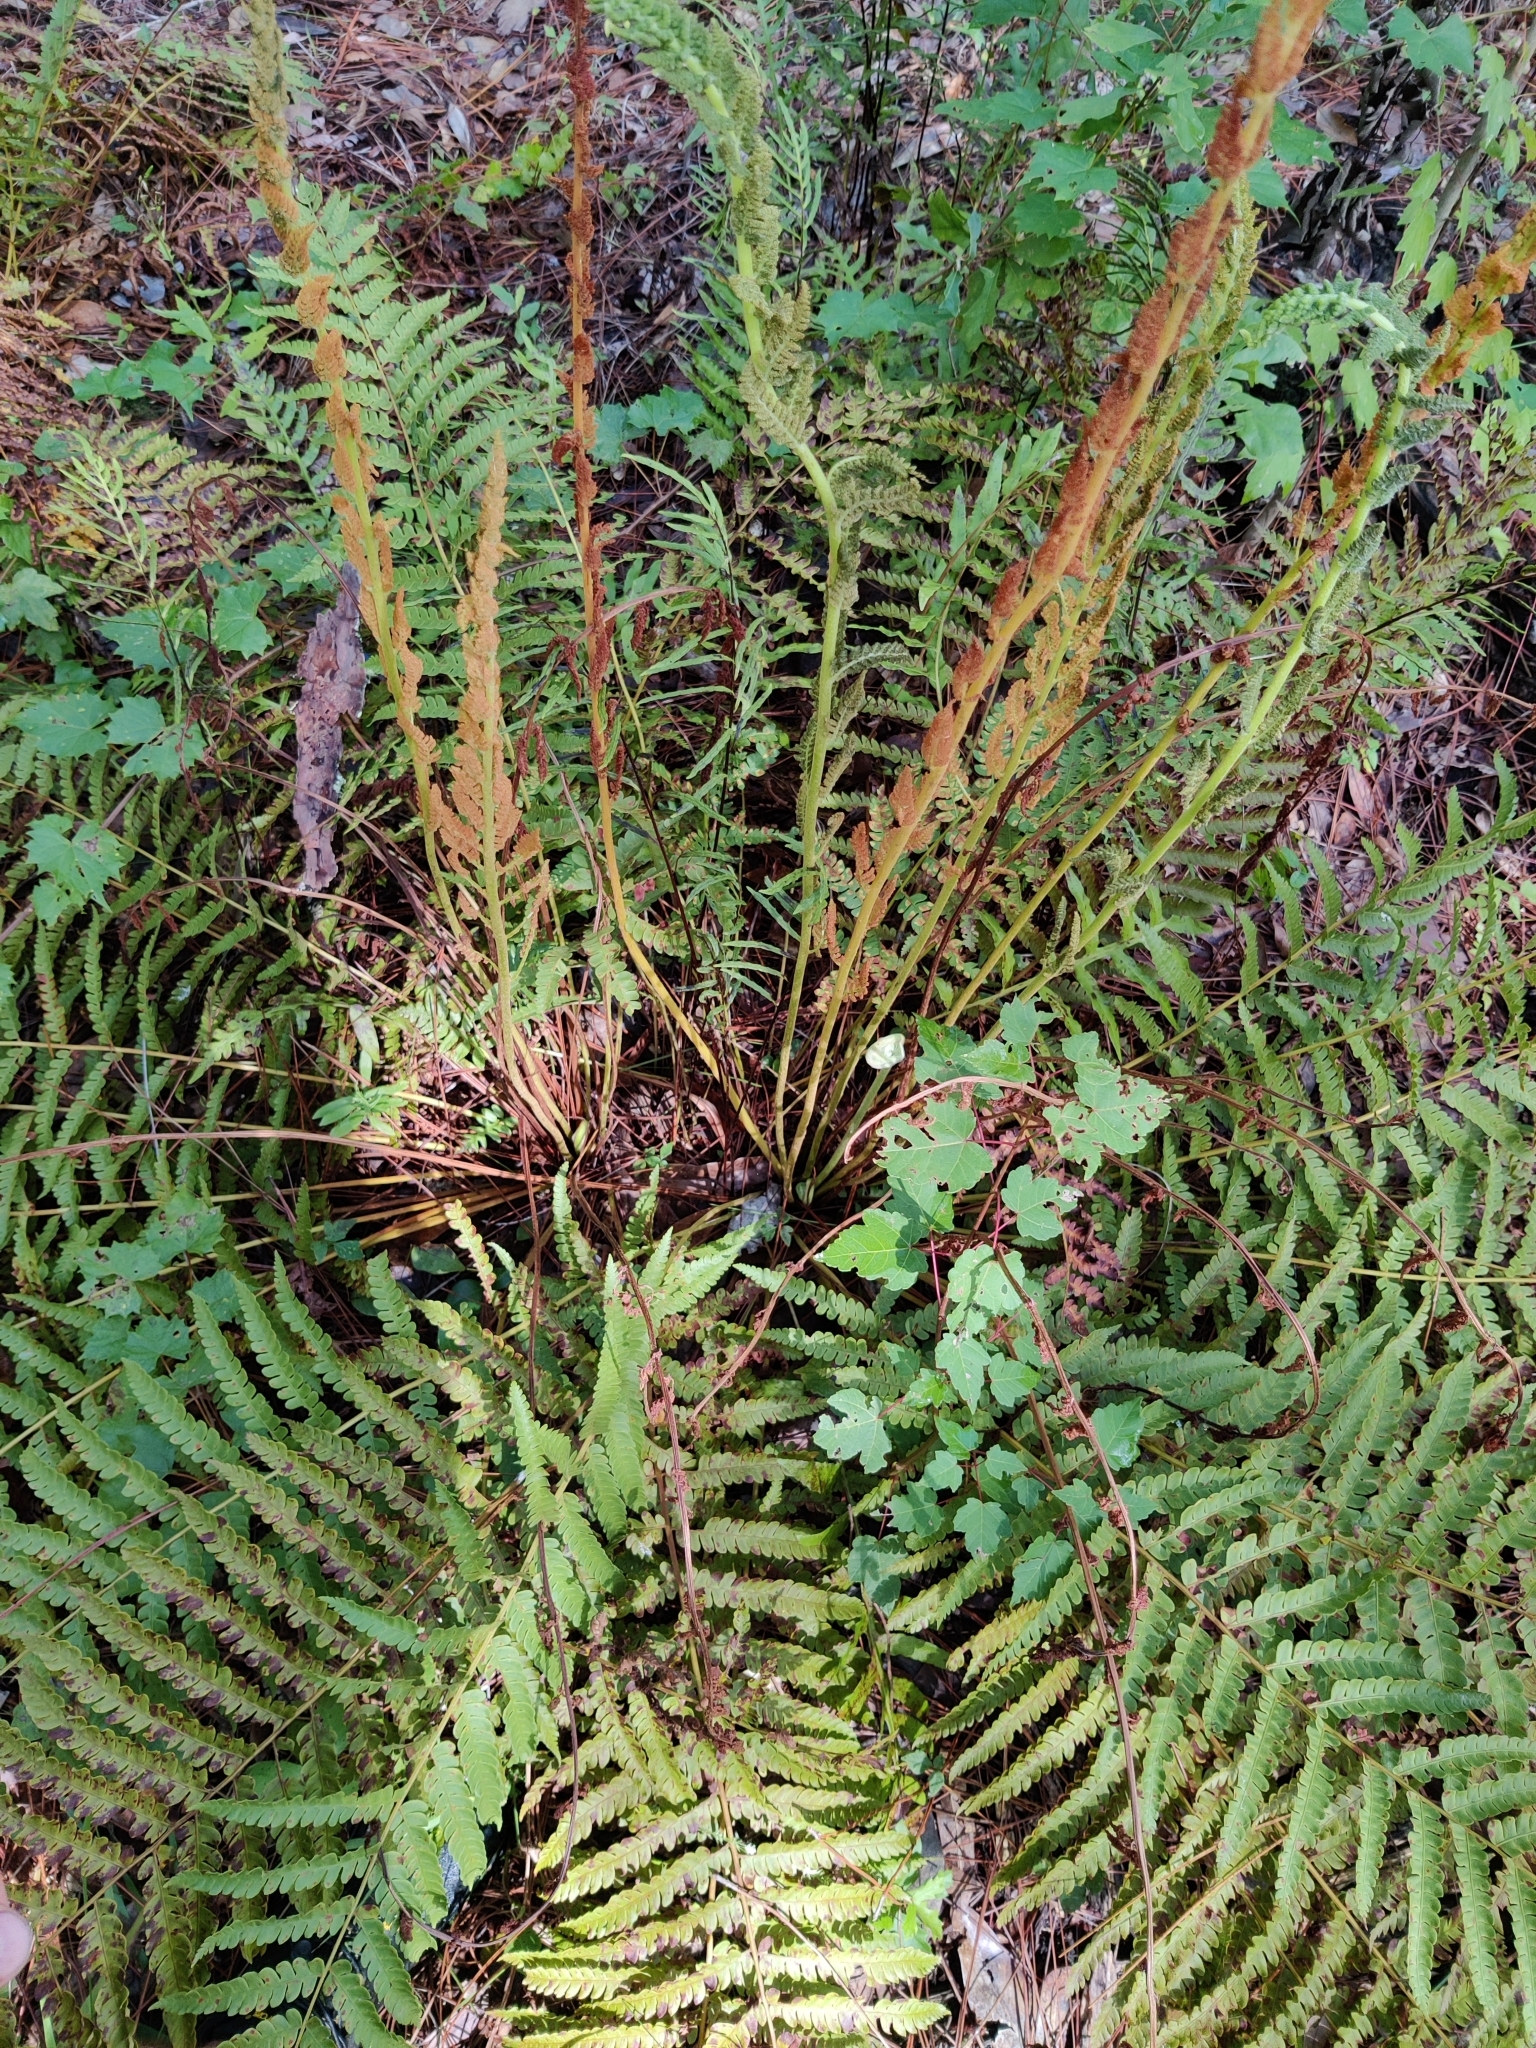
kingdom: Plantae
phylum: Tracheophyta
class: Polypodiopsida
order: Osmundales
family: Osmundaceae
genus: Osmundastrum
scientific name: Osmundastrum cinnamomeum
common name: Cinnamon fern
